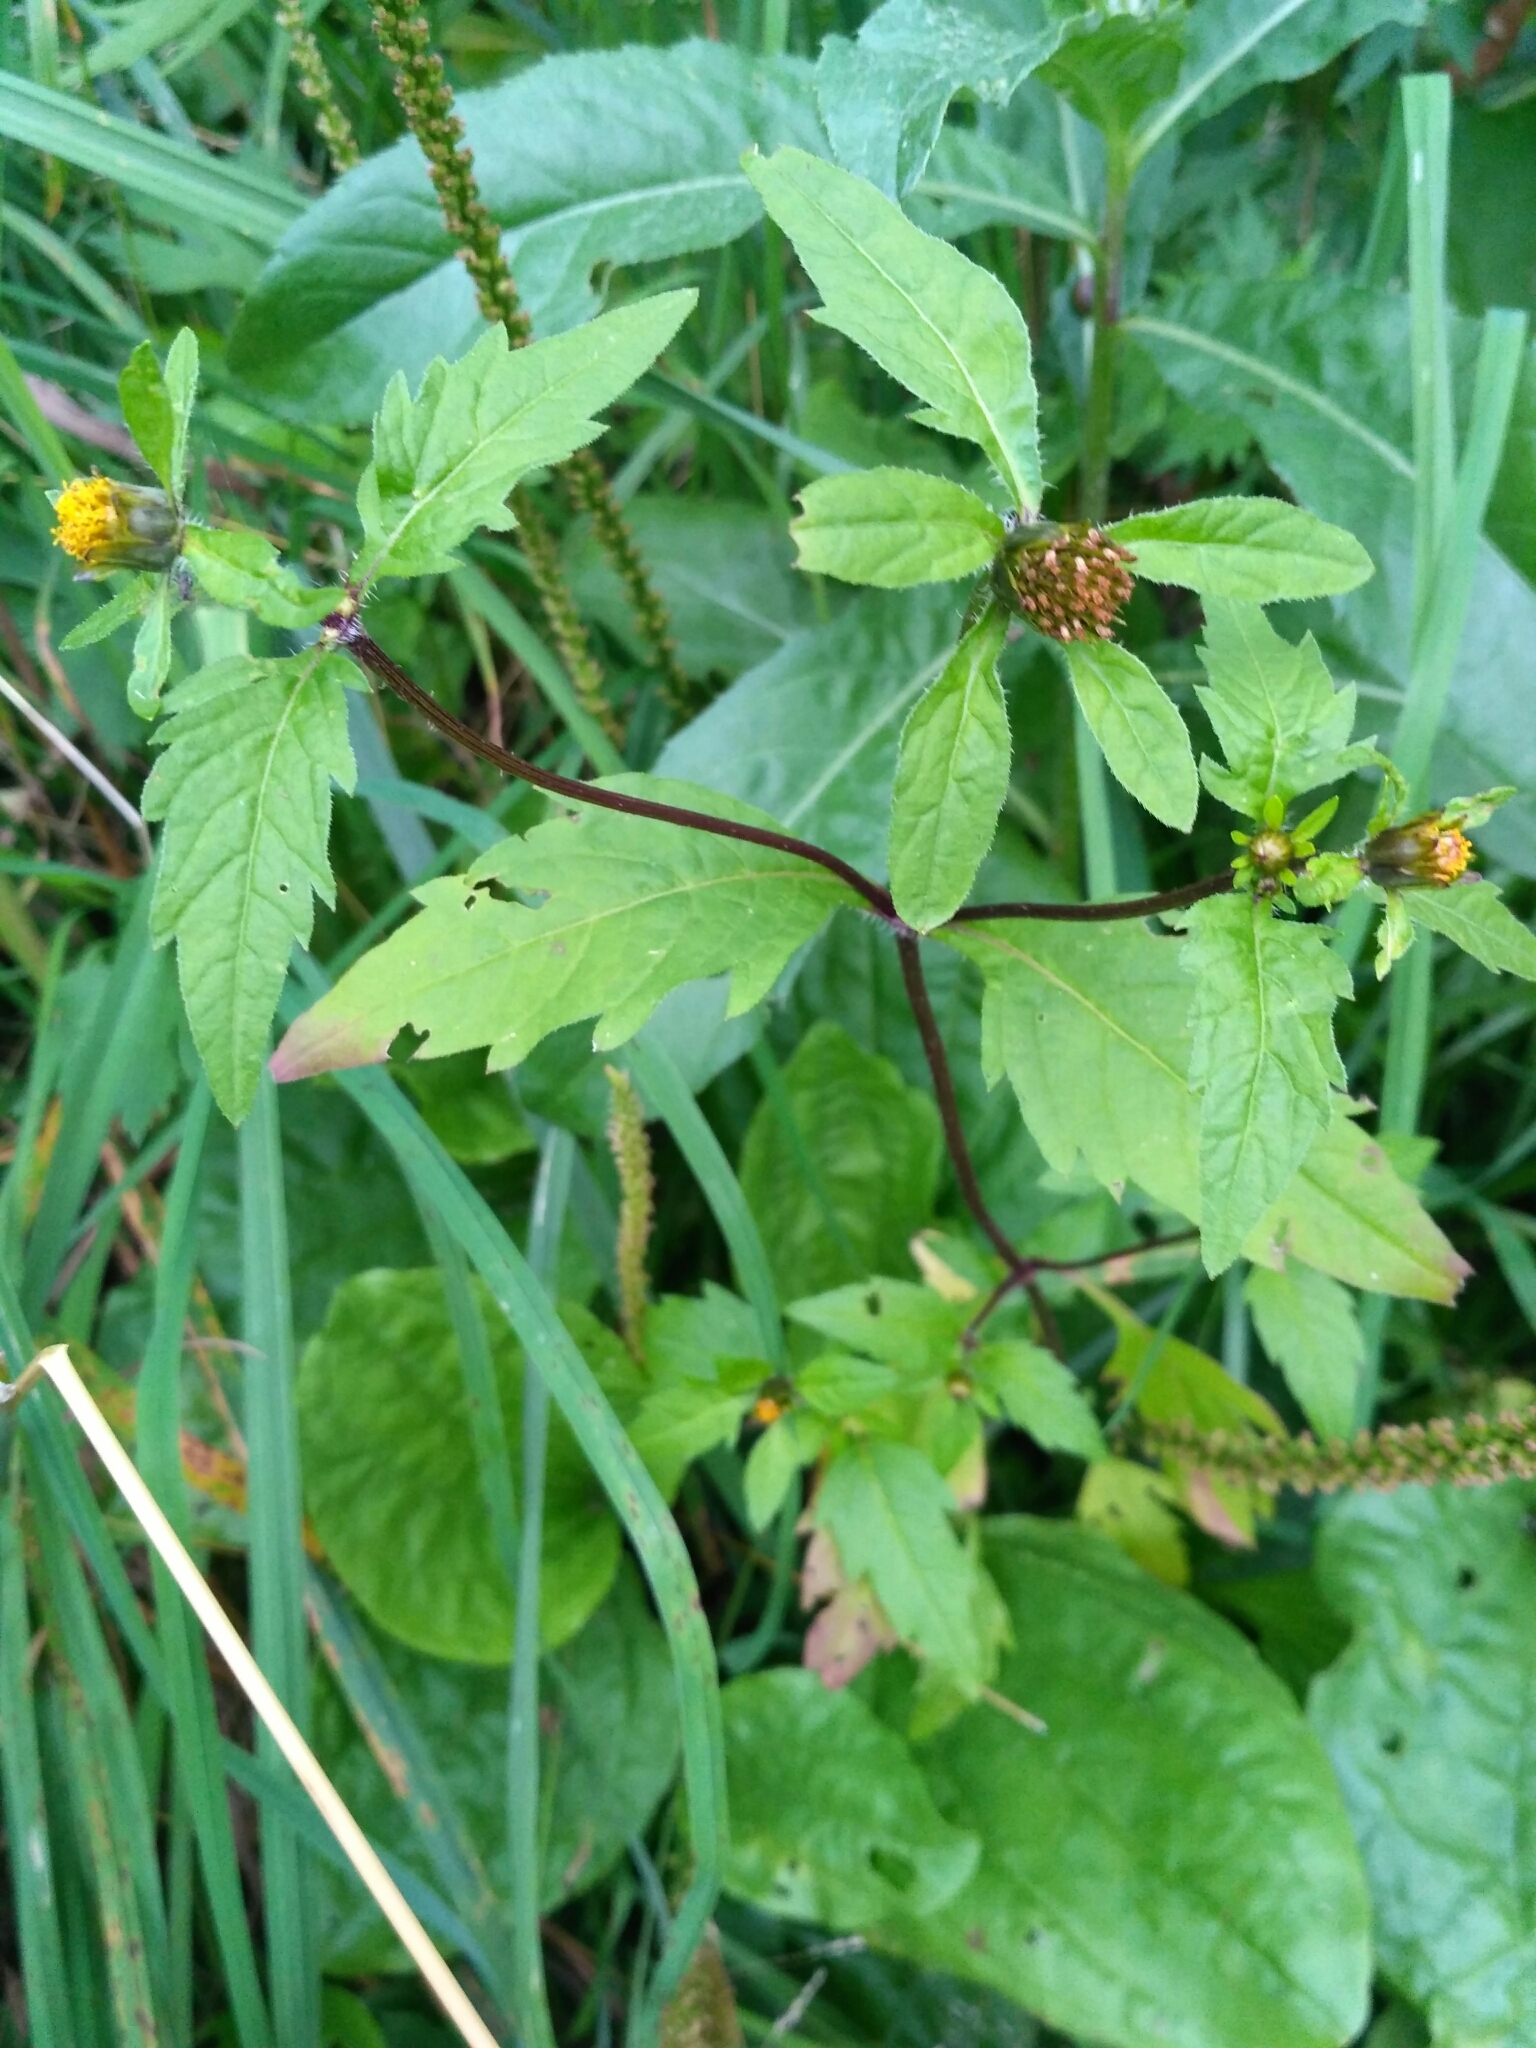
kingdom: Plantae
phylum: Tracheophyta
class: Magnoliopsida
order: Asterales
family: Asteraceae
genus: Bidens
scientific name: Bidens tripartita
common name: Trifid bur-marigold
